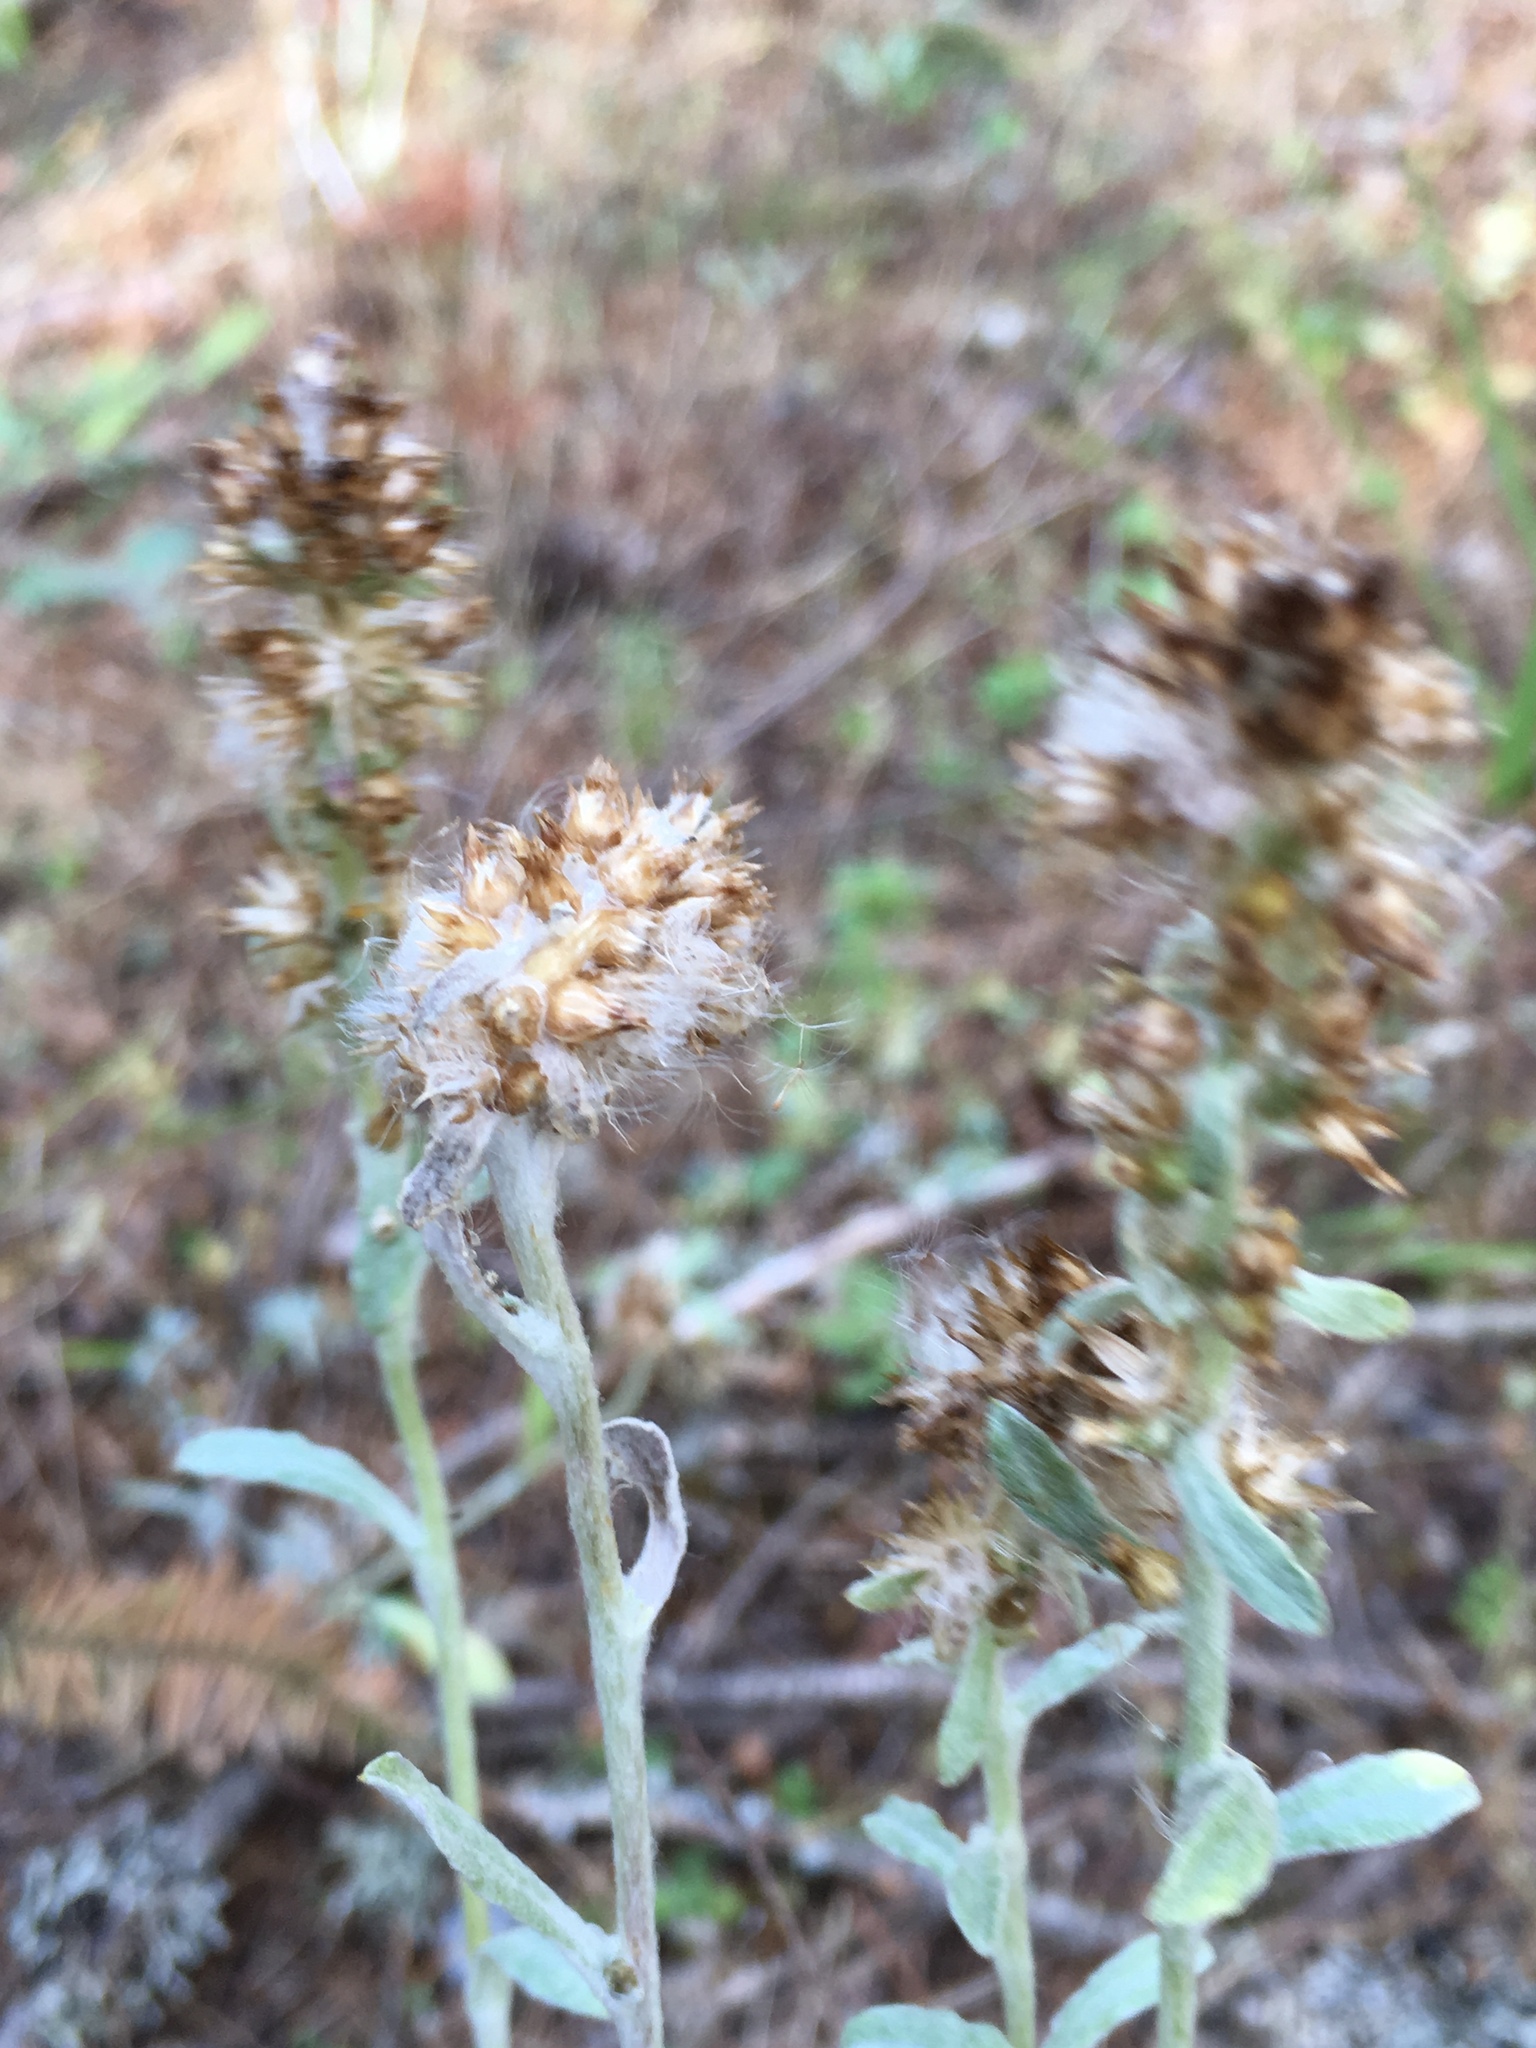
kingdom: Plantae
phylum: Tracheophyta
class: Magnoliopsida
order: Asterales
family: Asteraceae
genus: Gamochaeta
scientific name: Gamochaeta ustulata
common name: Pacific cudweed
